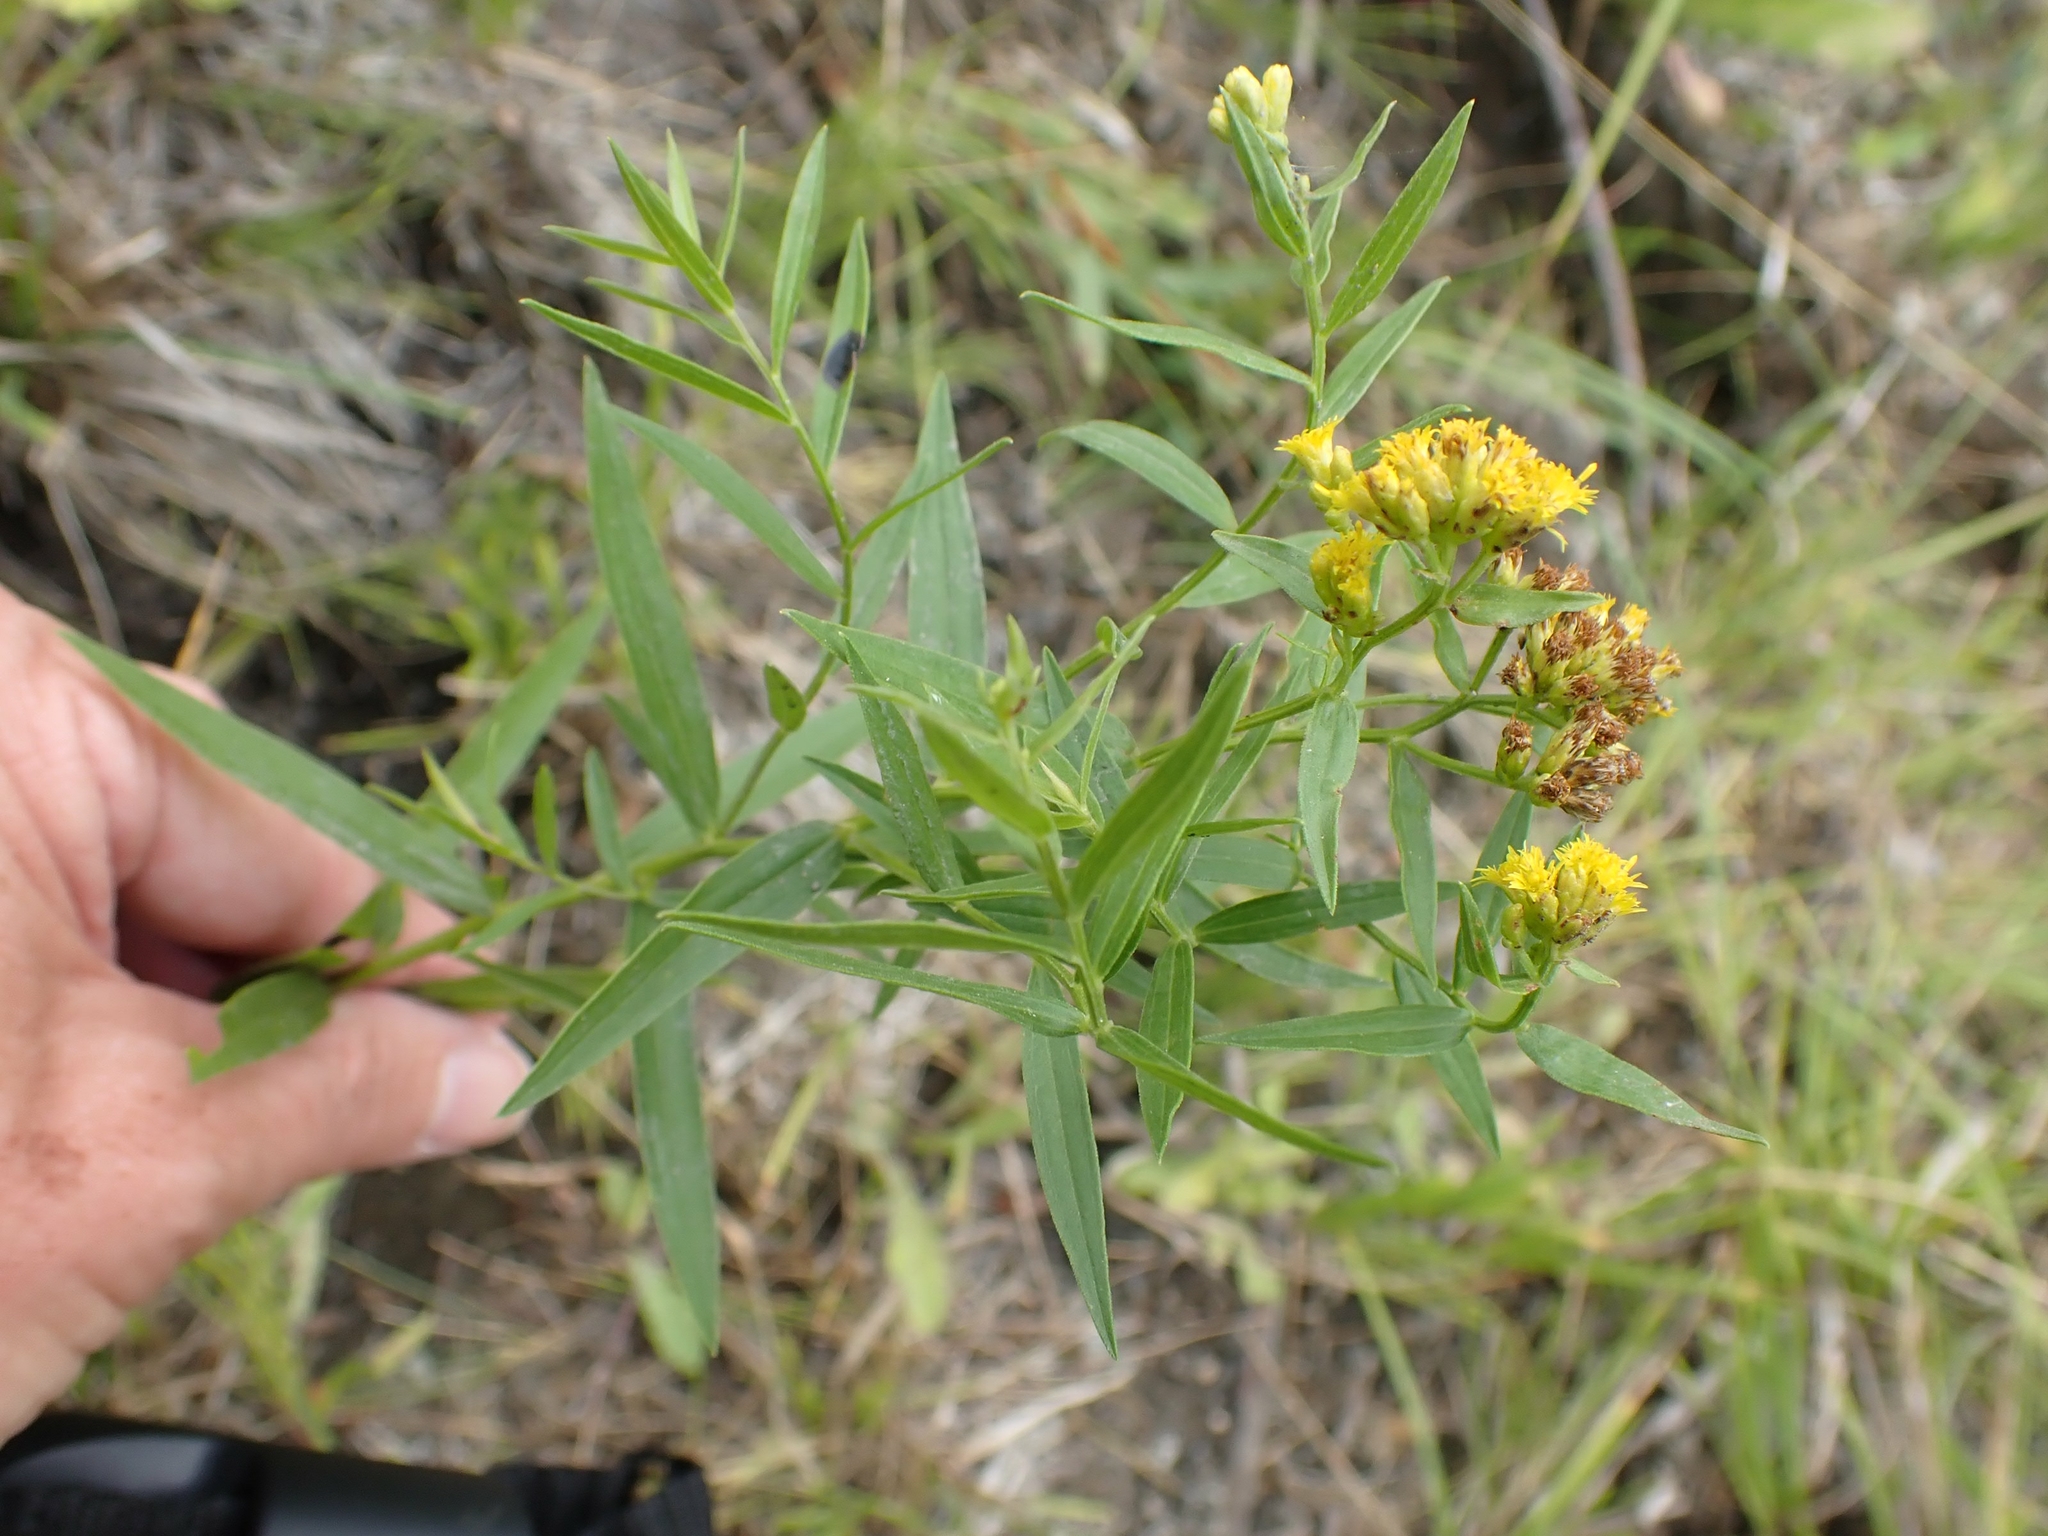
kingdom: Plantae
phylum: Tracheophyta
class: Magnoliopsida
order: Asterales
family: Asteraceae
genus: Euthamia
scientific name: Euthamia graminifolia
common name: Common goldentop
